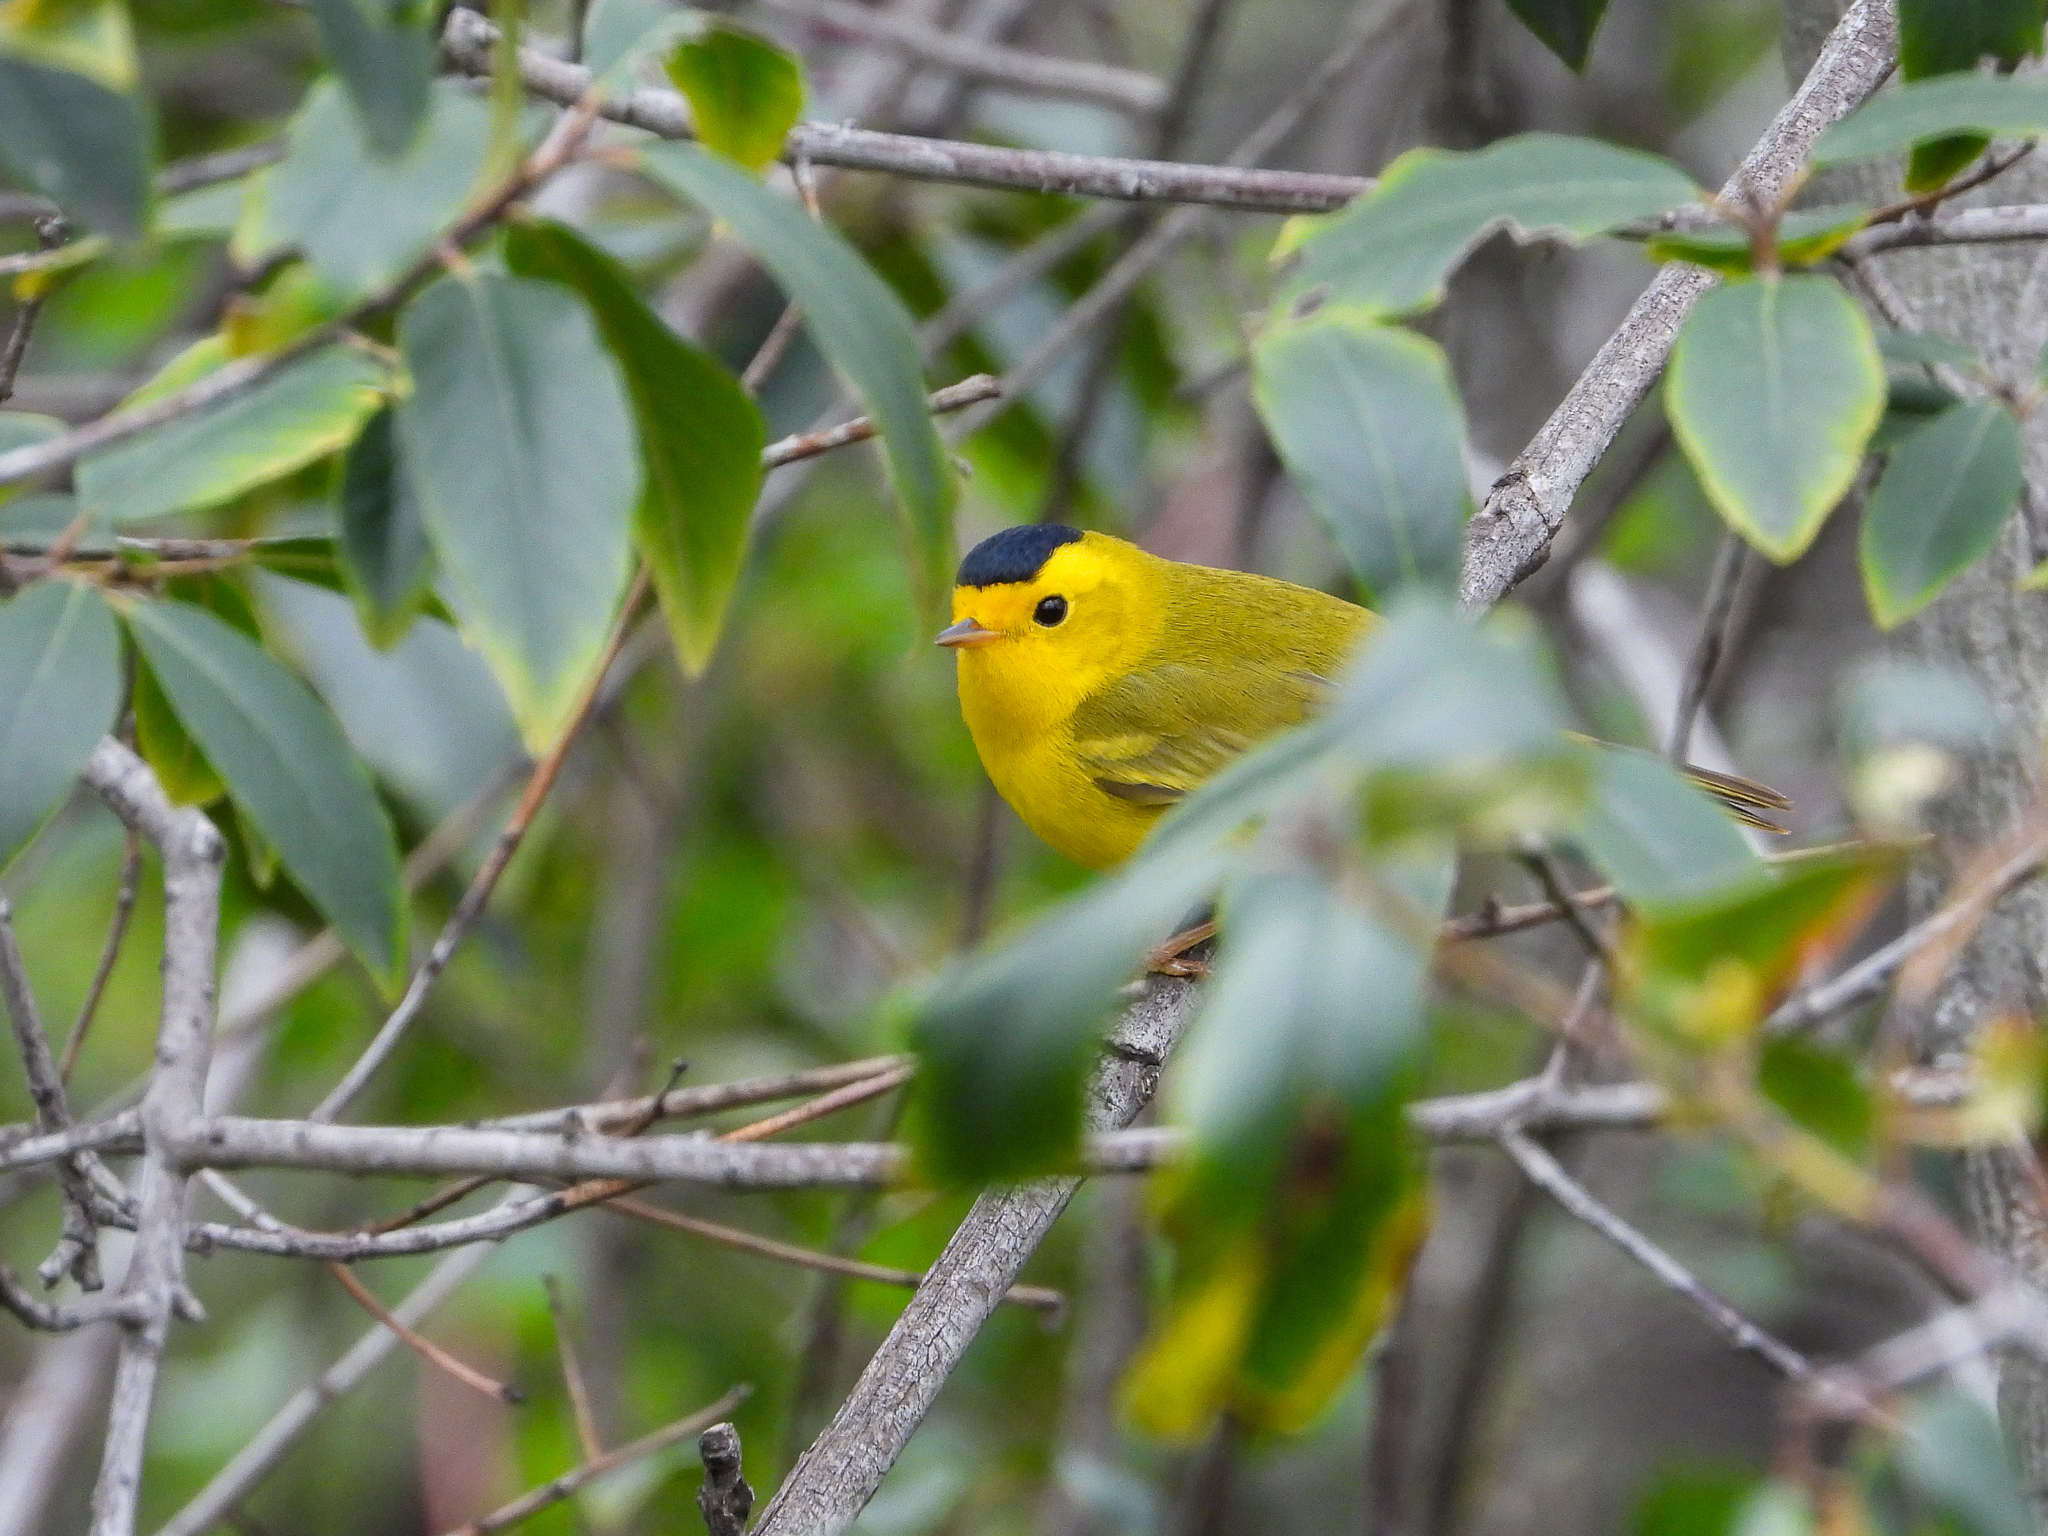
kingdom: Animalia
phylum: Chordata
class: Aves
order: Passeriformes
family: Parulidae
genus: Cardellina
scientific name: Cardellina pusilla
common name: Wilson's warbler
